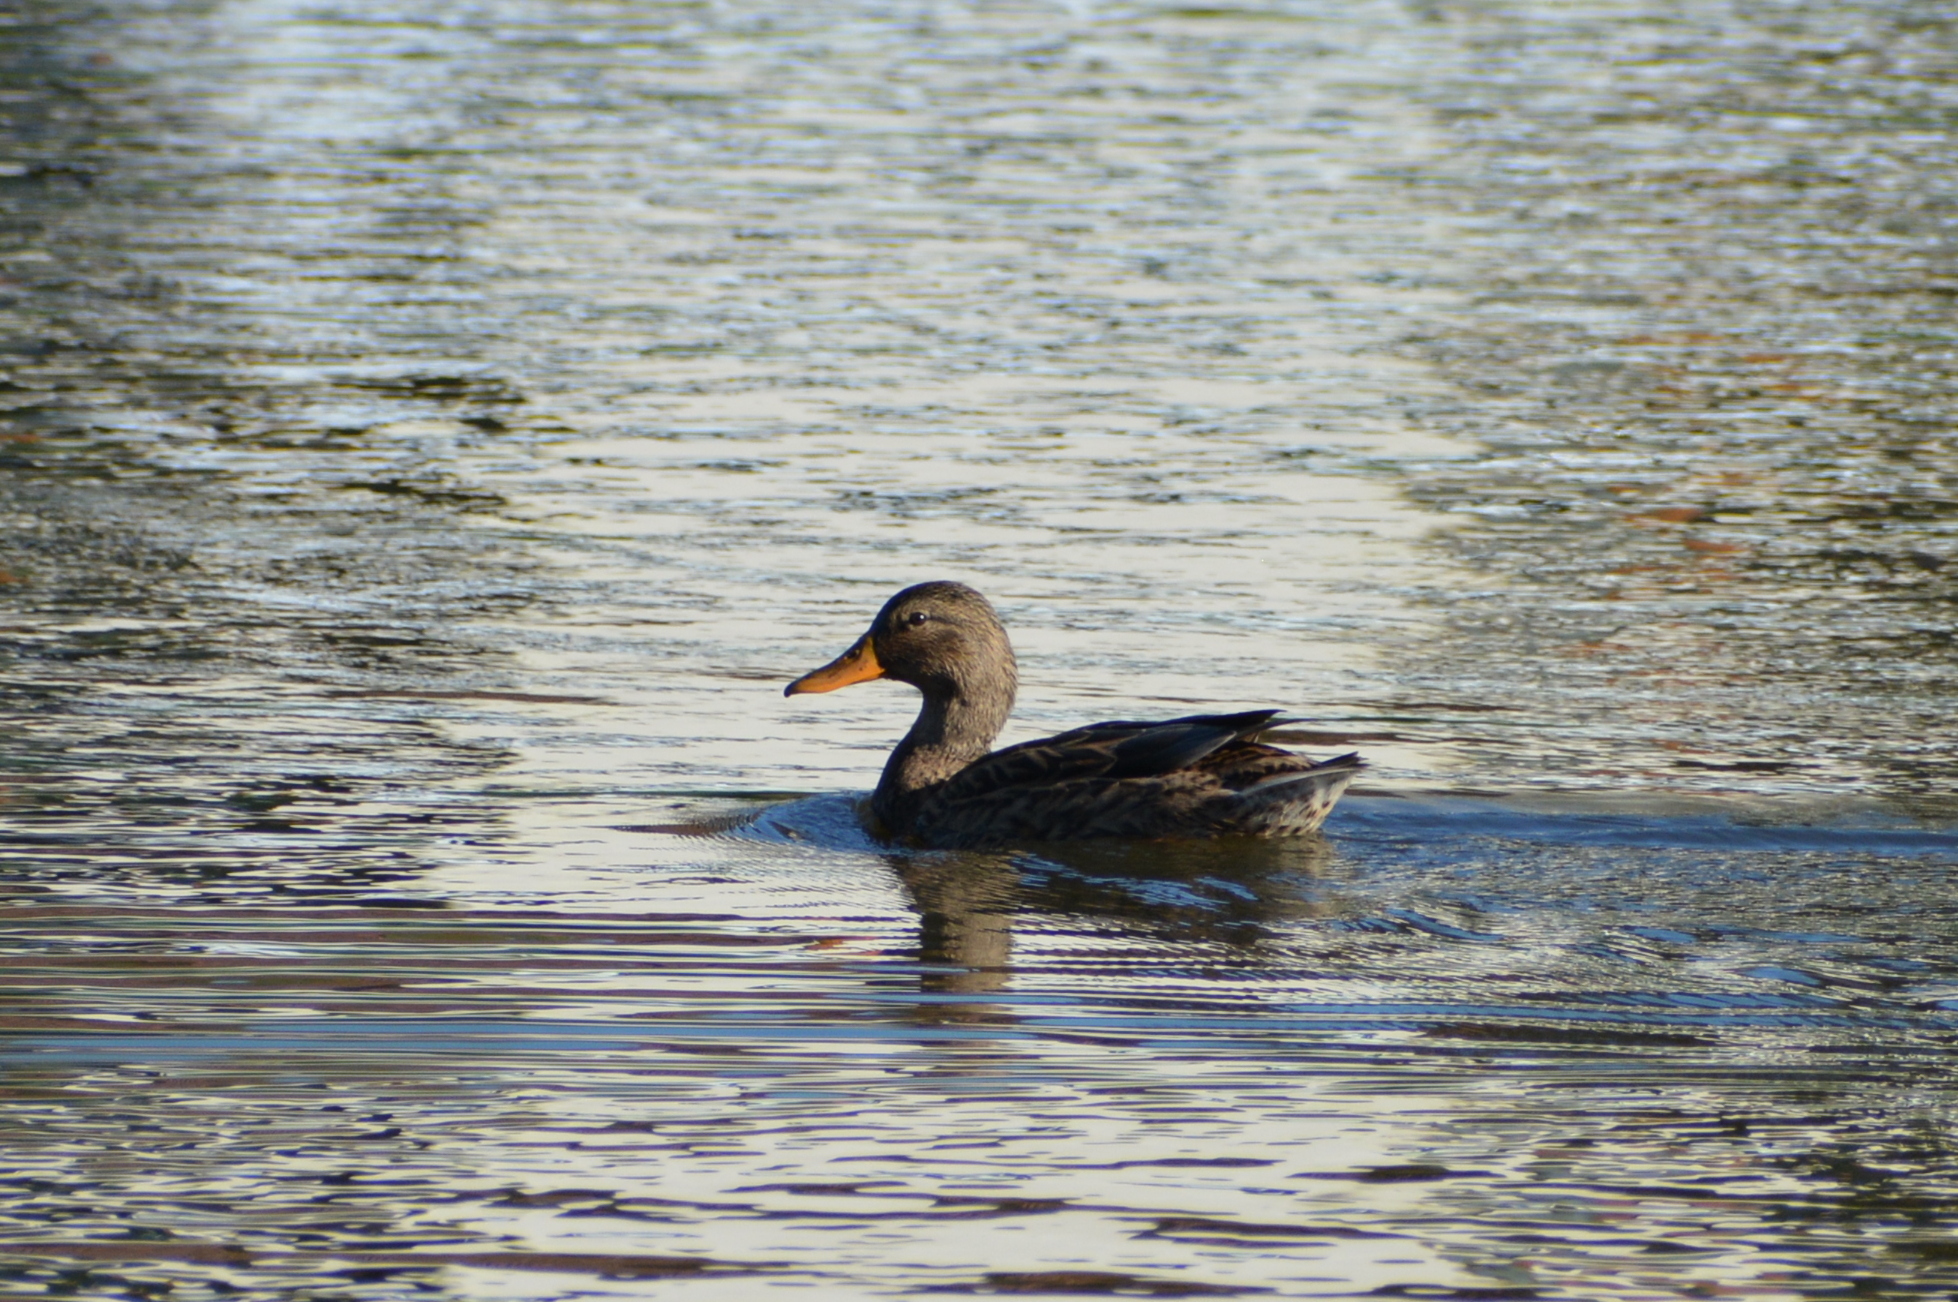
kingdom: Animalia
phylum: Chordata
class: Aves
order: Anseriformes
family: Anatidae
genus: Anas
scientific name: Anas platyrhynchos
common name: Mallard
